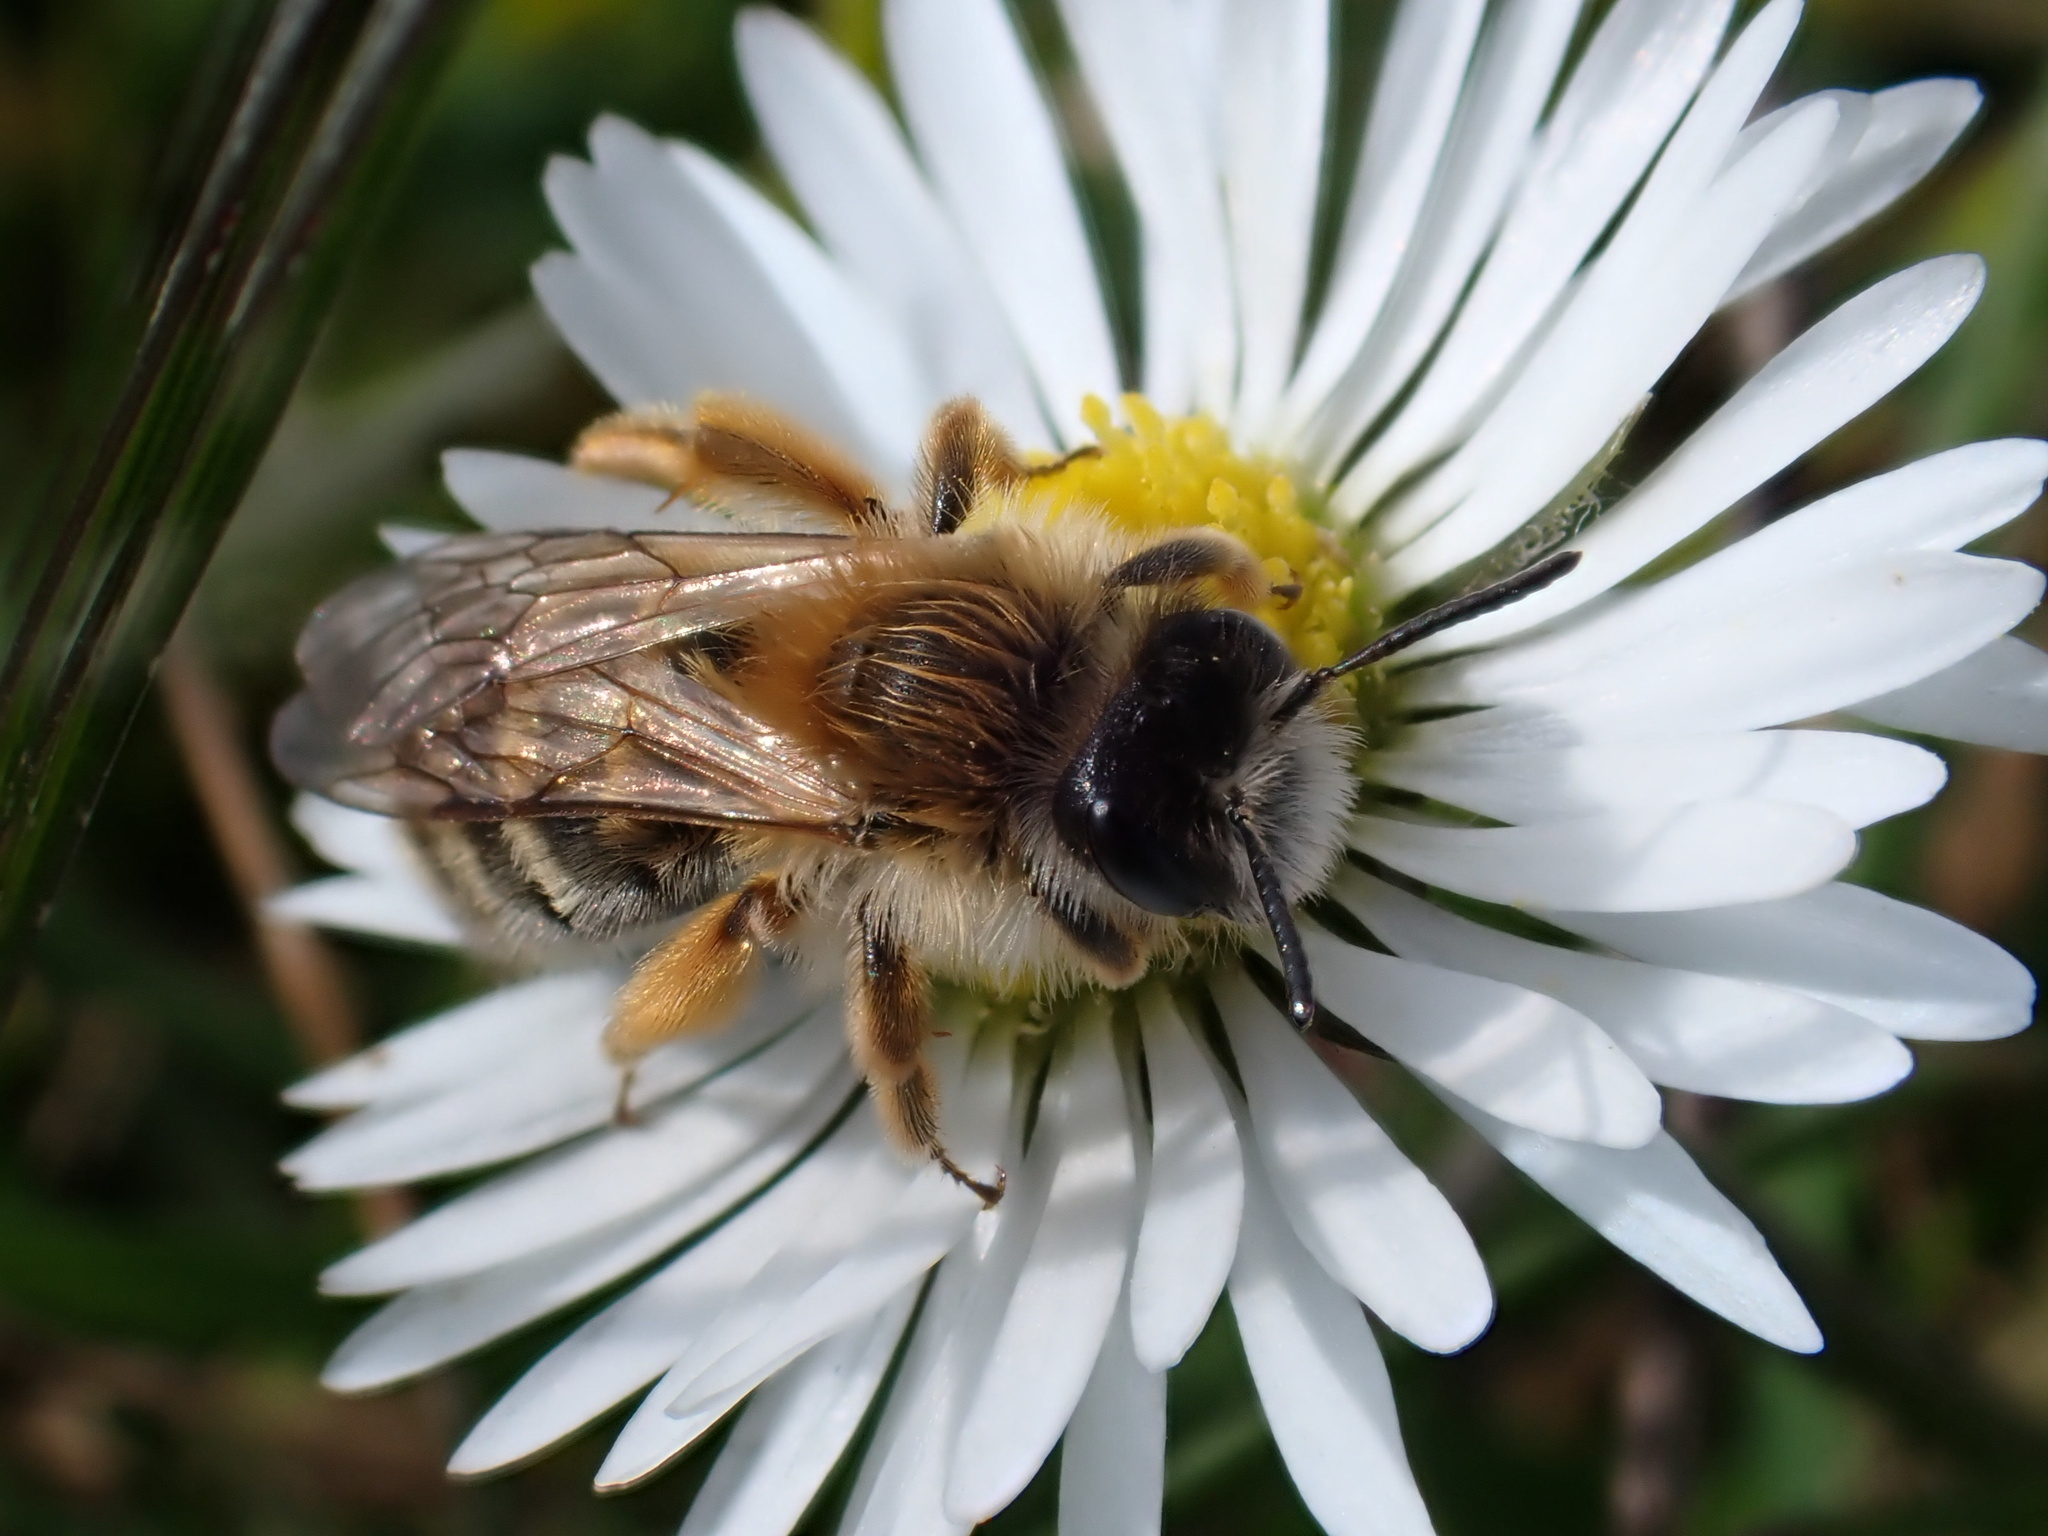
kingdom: Animalia
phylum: Arthropoda
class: Insecta
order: Hymenoptera
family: Andrenidae
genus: Andrena
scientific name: Andrena gravida
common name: White-bellied mining bee
